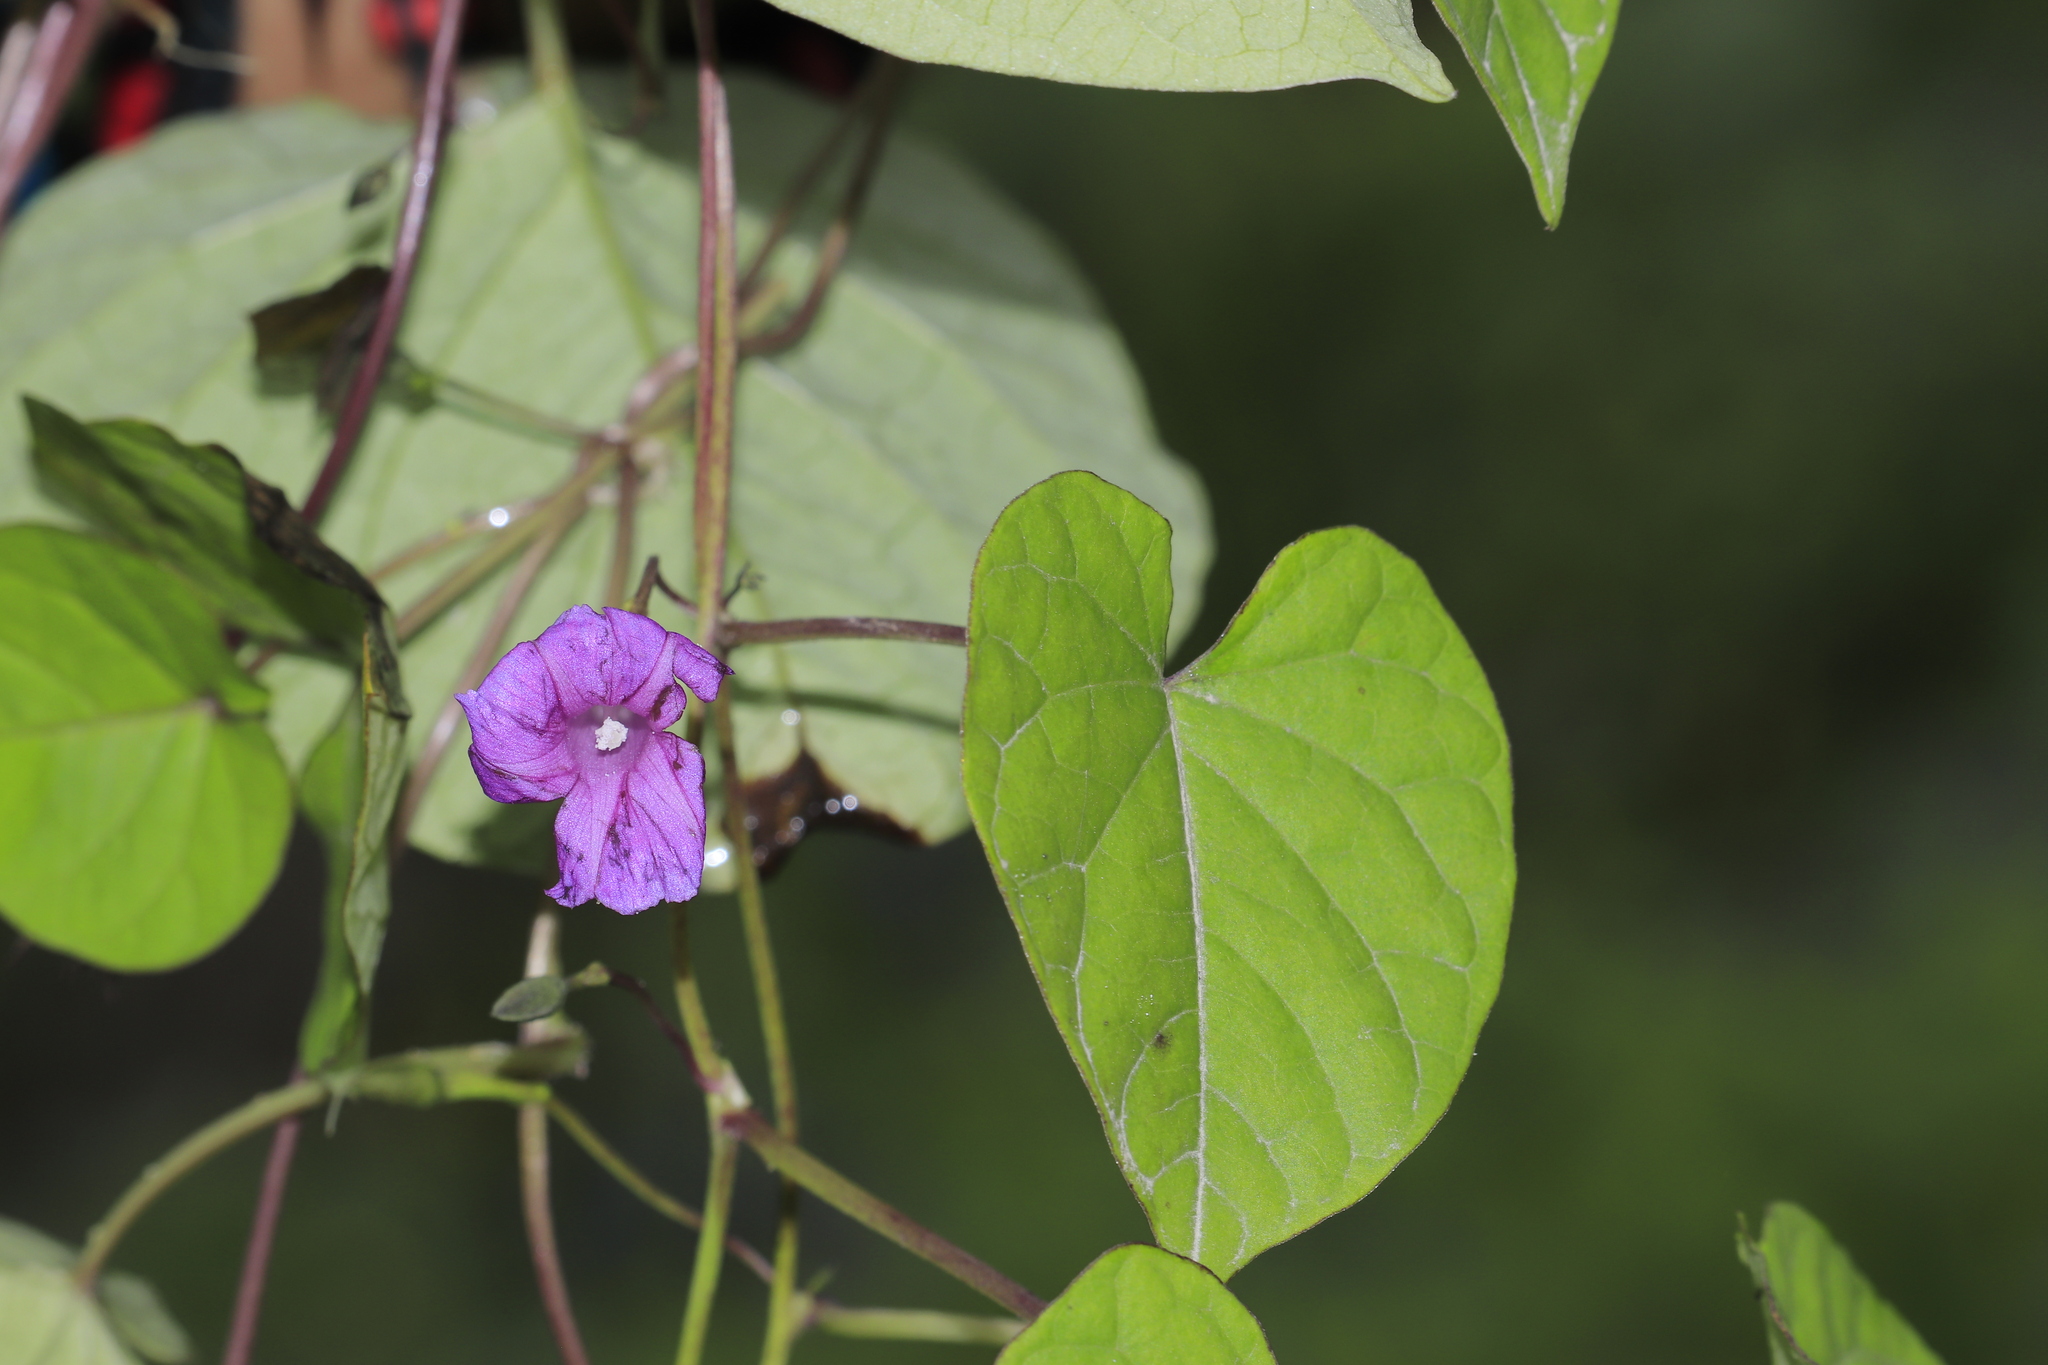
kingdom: Plantae
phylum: Tracheophyta
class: Magnoliopsida
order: Solanales
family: Convolvulaceae
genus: Ipomoea
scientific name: Ipomoea dumetorum
